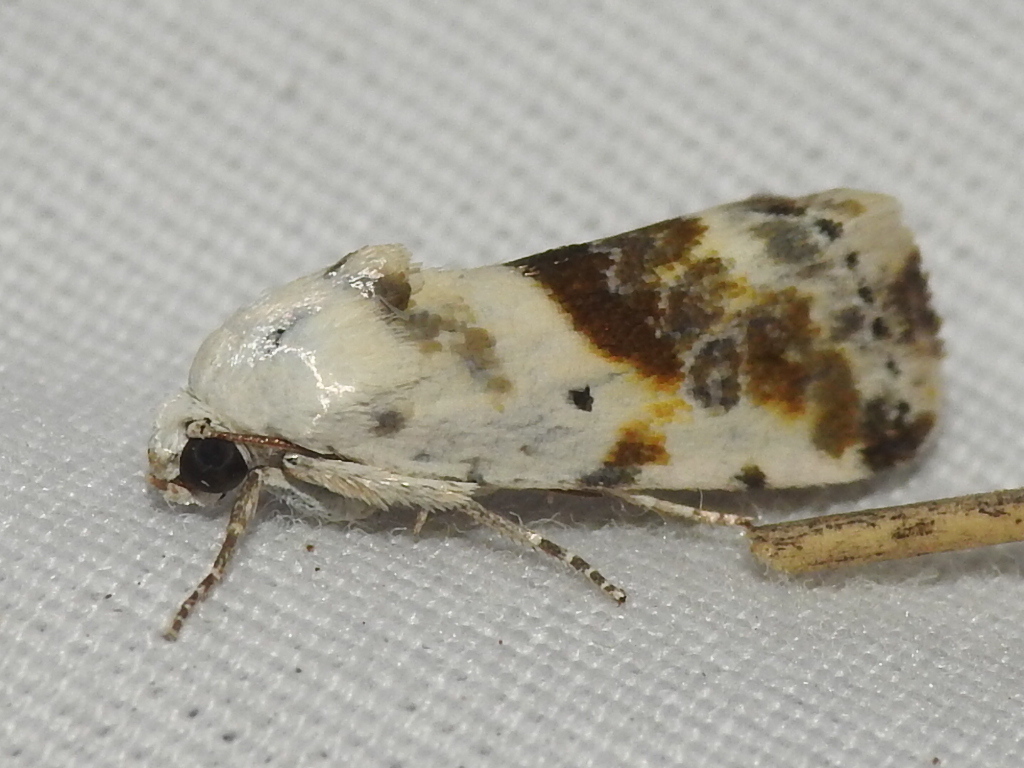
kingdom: Animalia
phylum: Arthropoda
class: Insecta
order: Lepidoptera
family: Noctuidae
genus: Acontia
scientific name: Acontia candefacta
